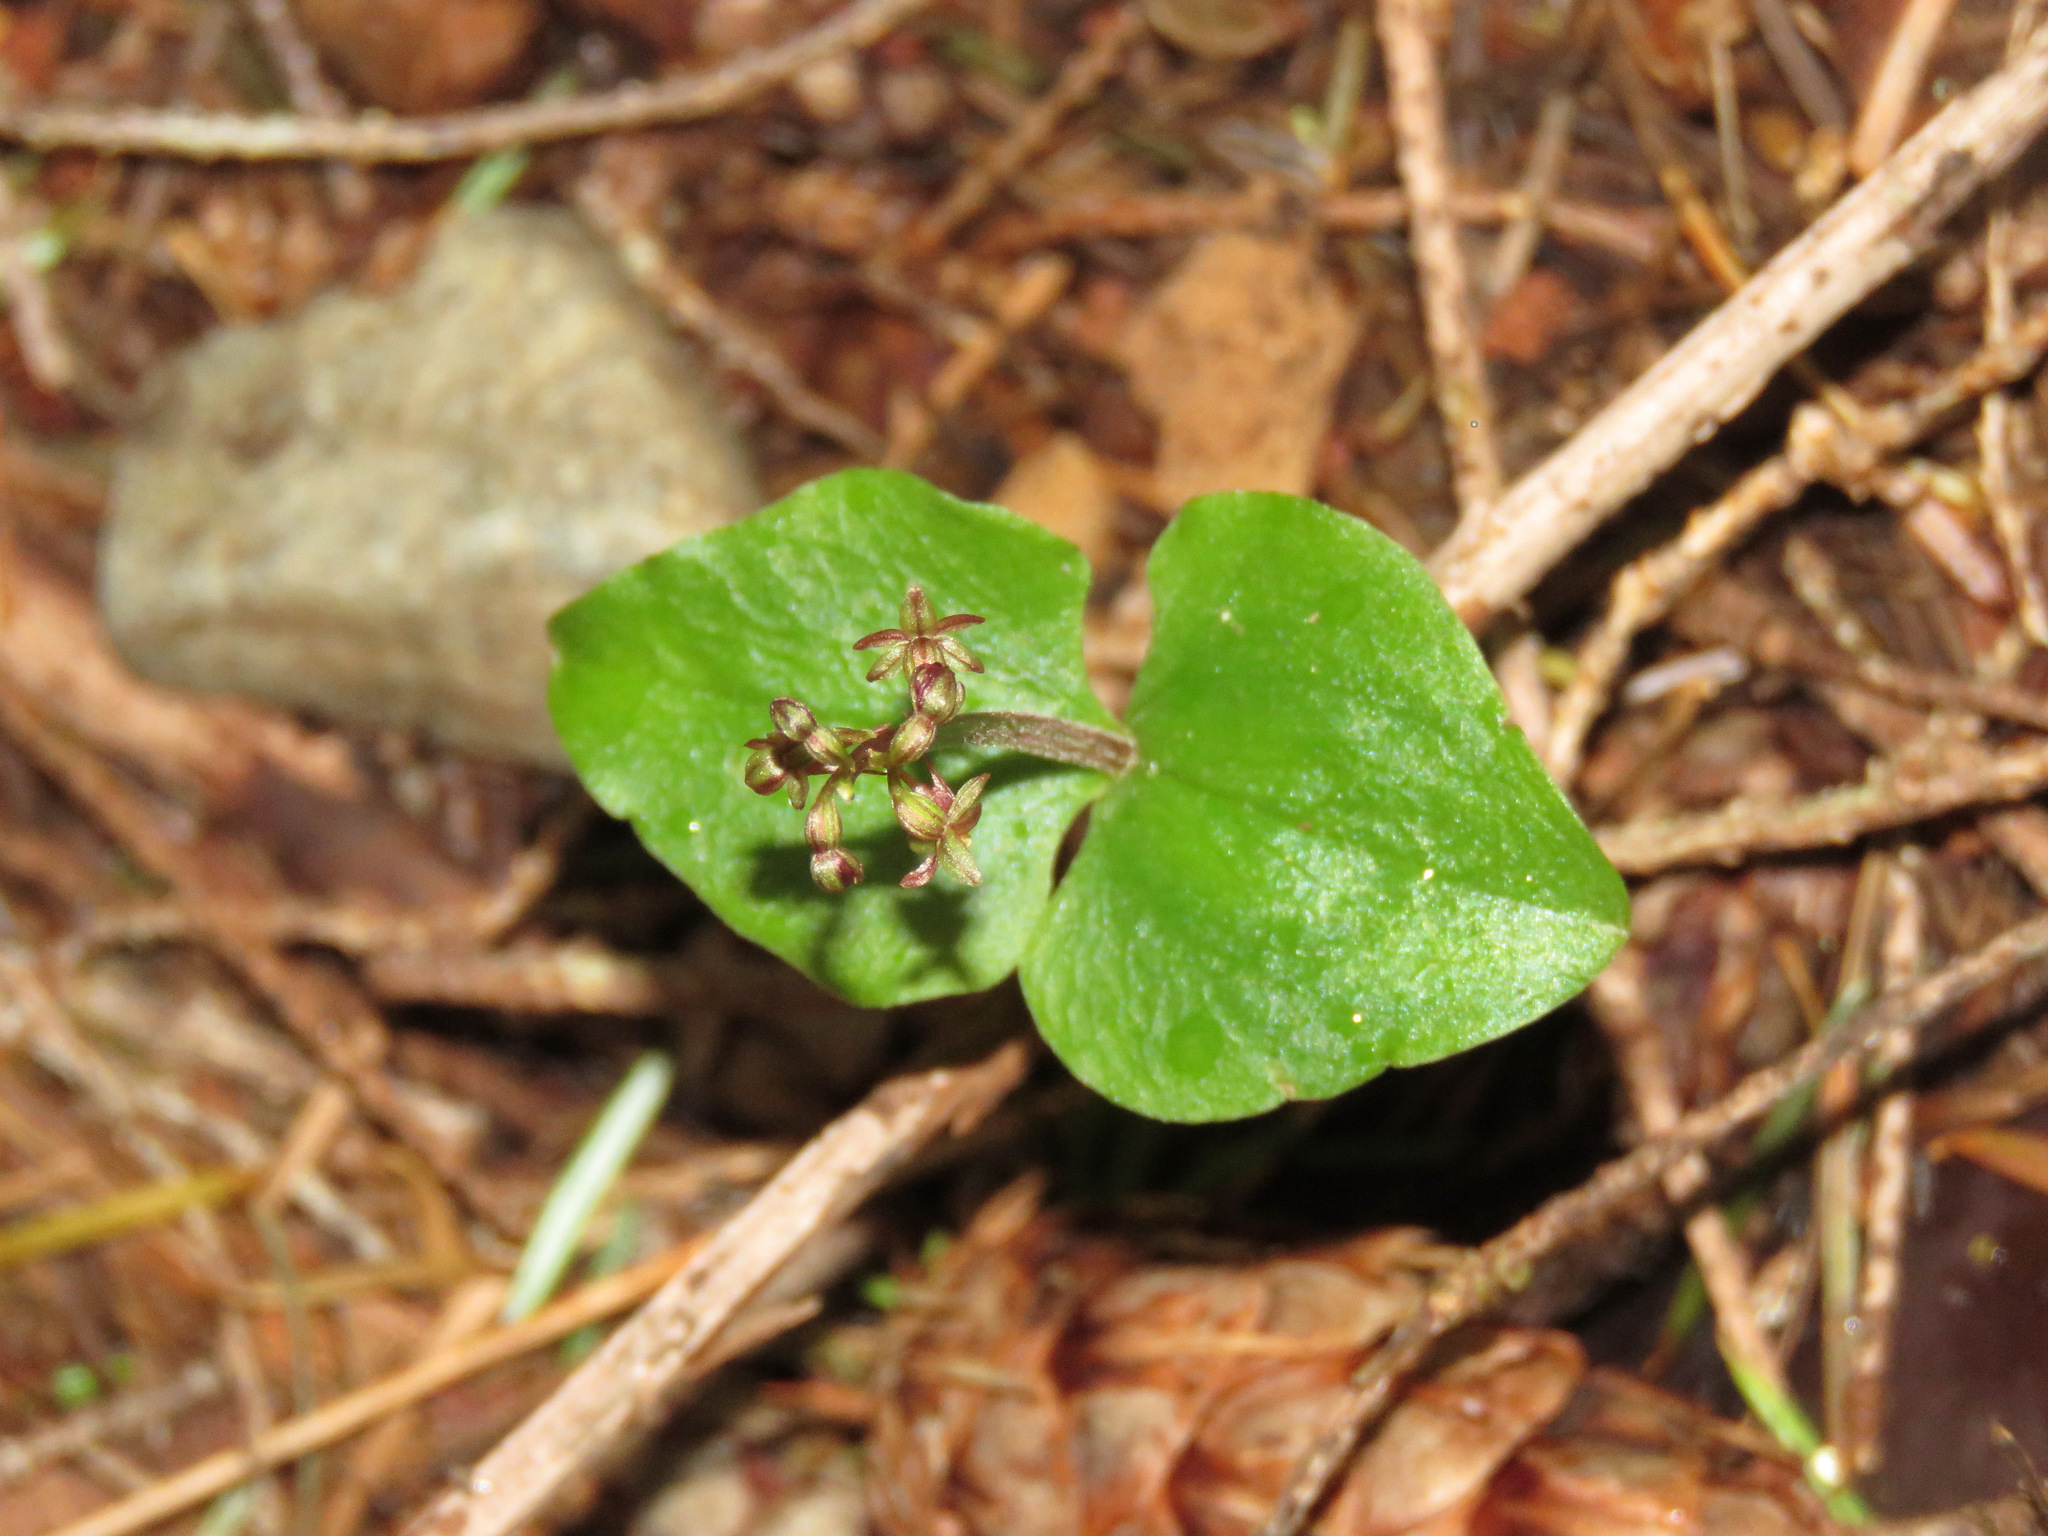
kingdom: Plantae
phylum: Tracheophyta
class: Liliopsida
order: Asparagales
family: Orchidaceae
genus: Neottia
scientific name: Neottia cordata
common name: Lesser twayblade
